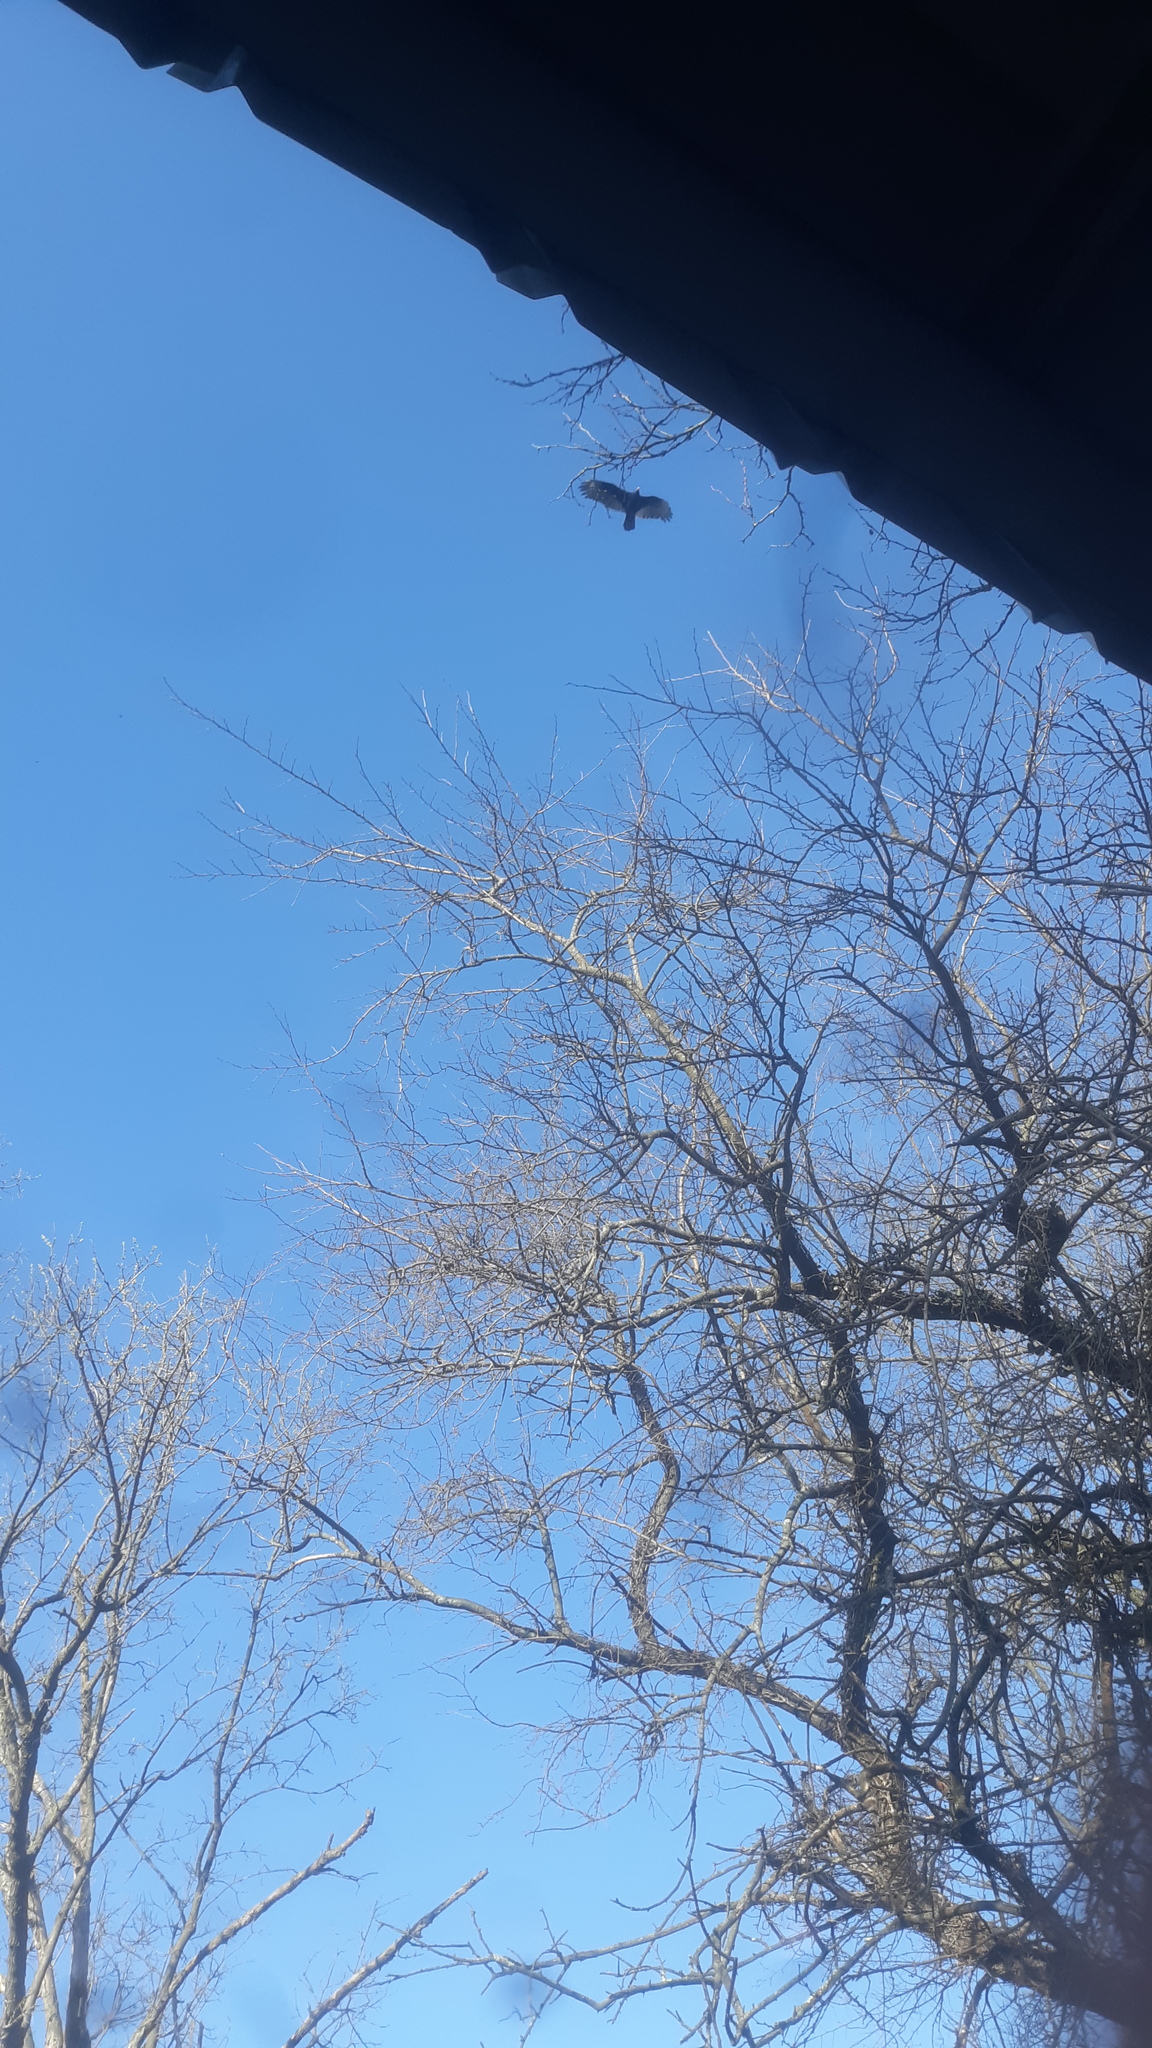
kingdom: Animalia
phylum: Chordata
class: Aves
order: Accipitriformes
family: Cathartidae
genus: Cathartes
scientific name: Cathartes aura
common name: Turkey vulture
